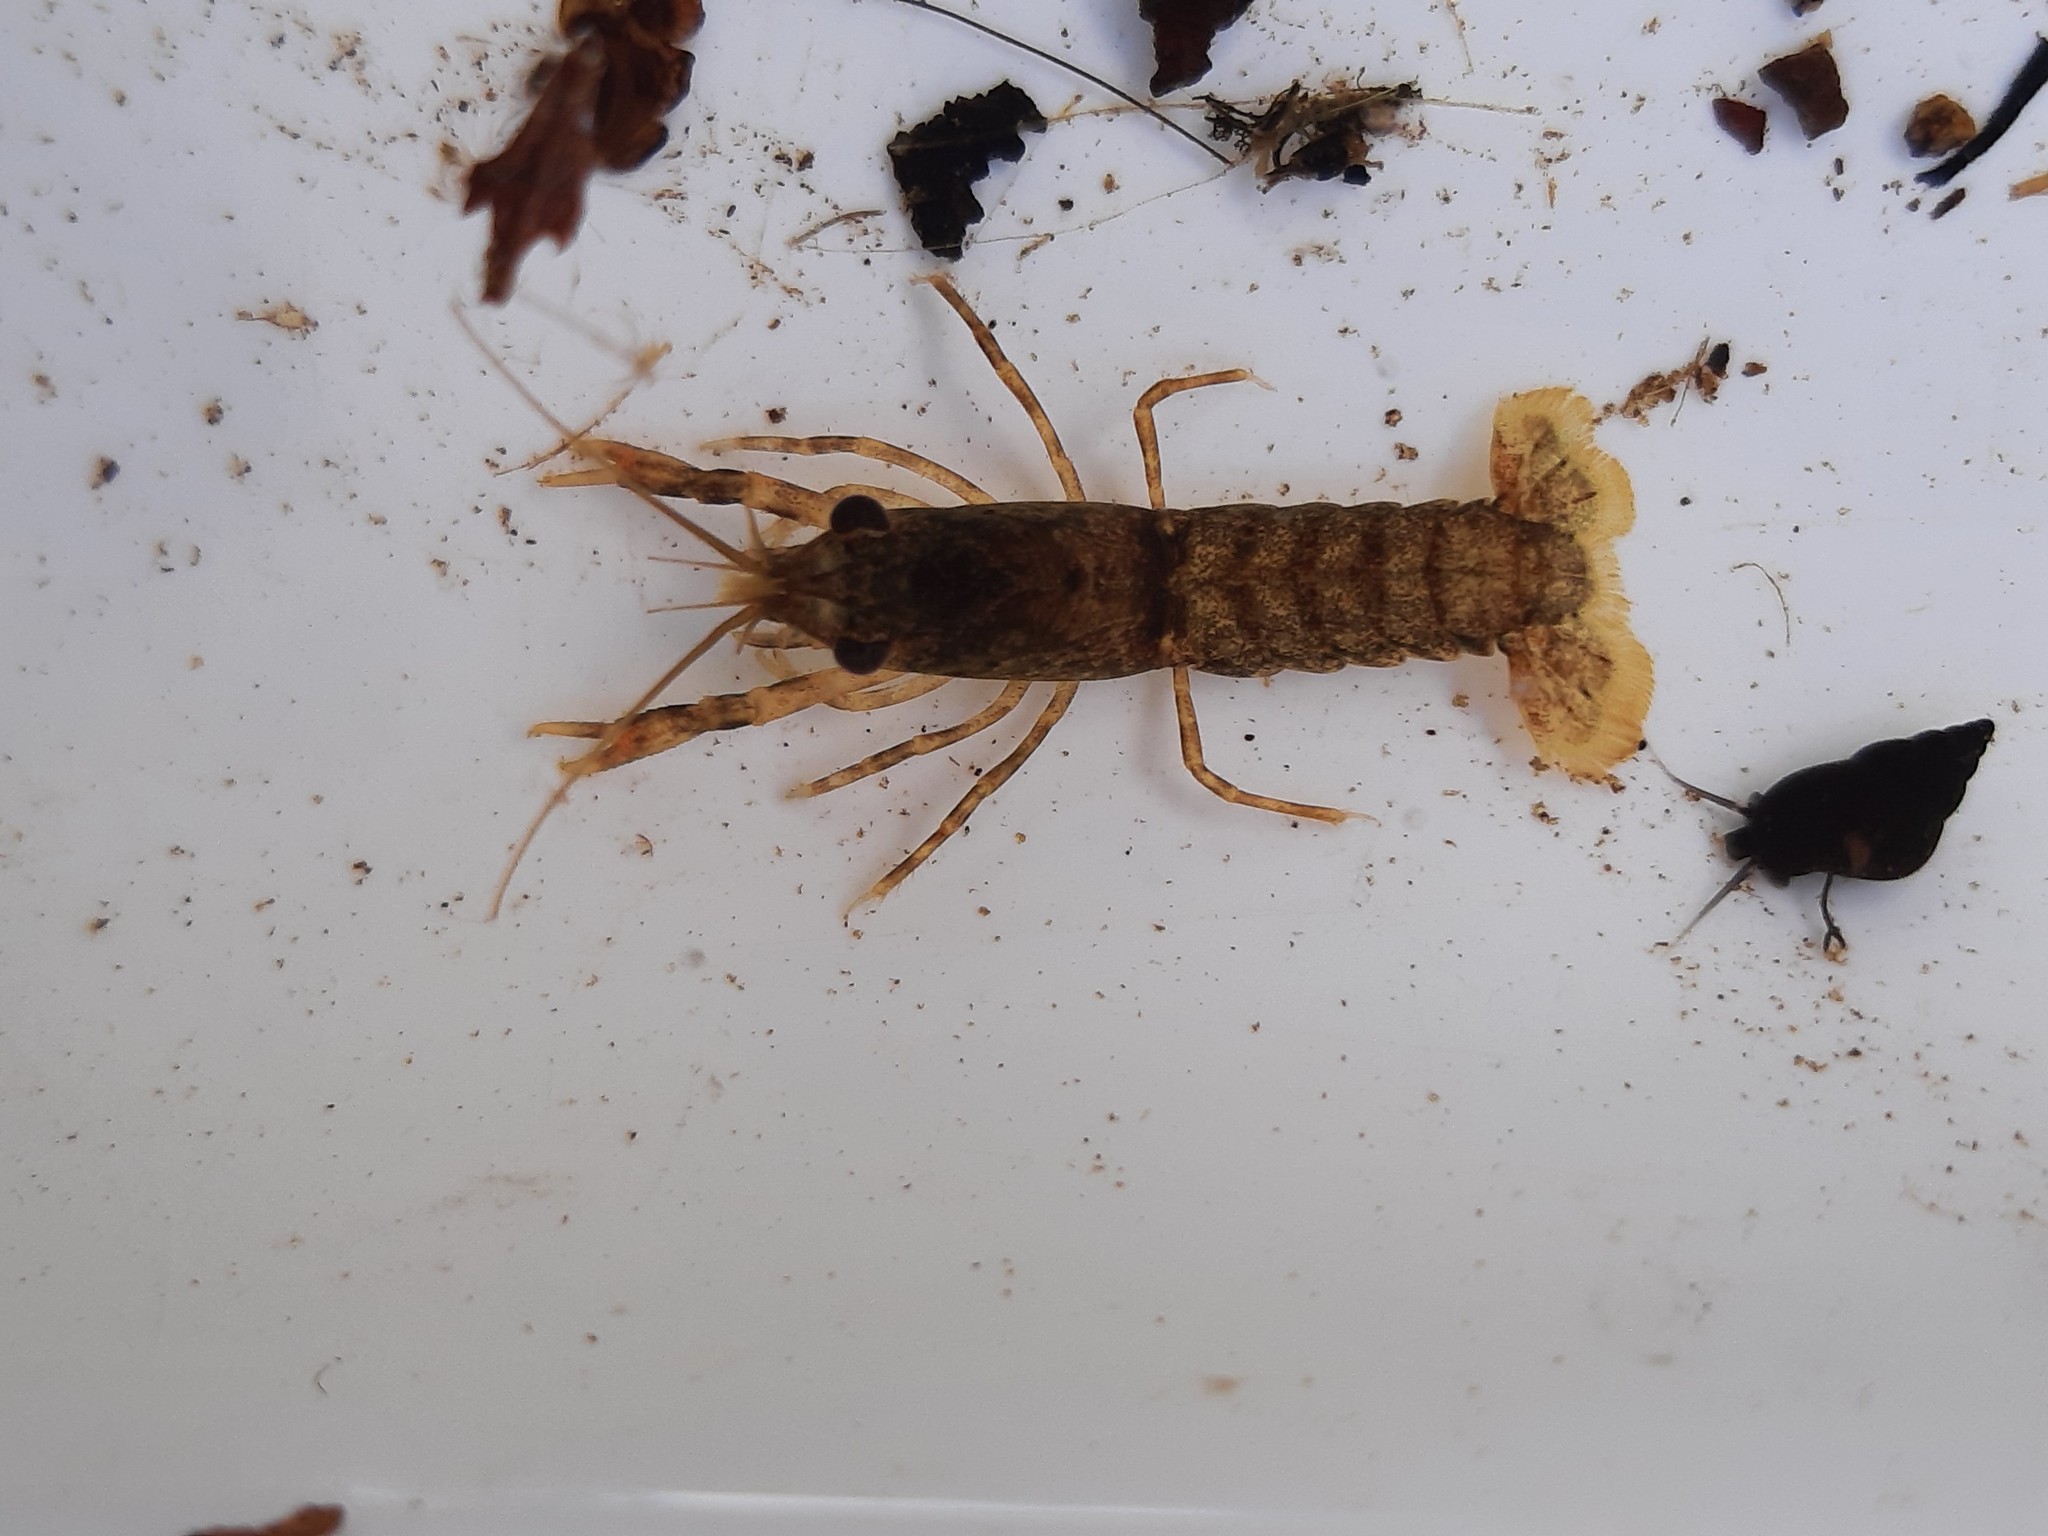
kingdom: Animalia
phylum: Arthropoda
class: Malacostraca
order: Decapoda
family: Parastacidae
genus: Paranephrops
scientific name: Paranephrops planifrons
